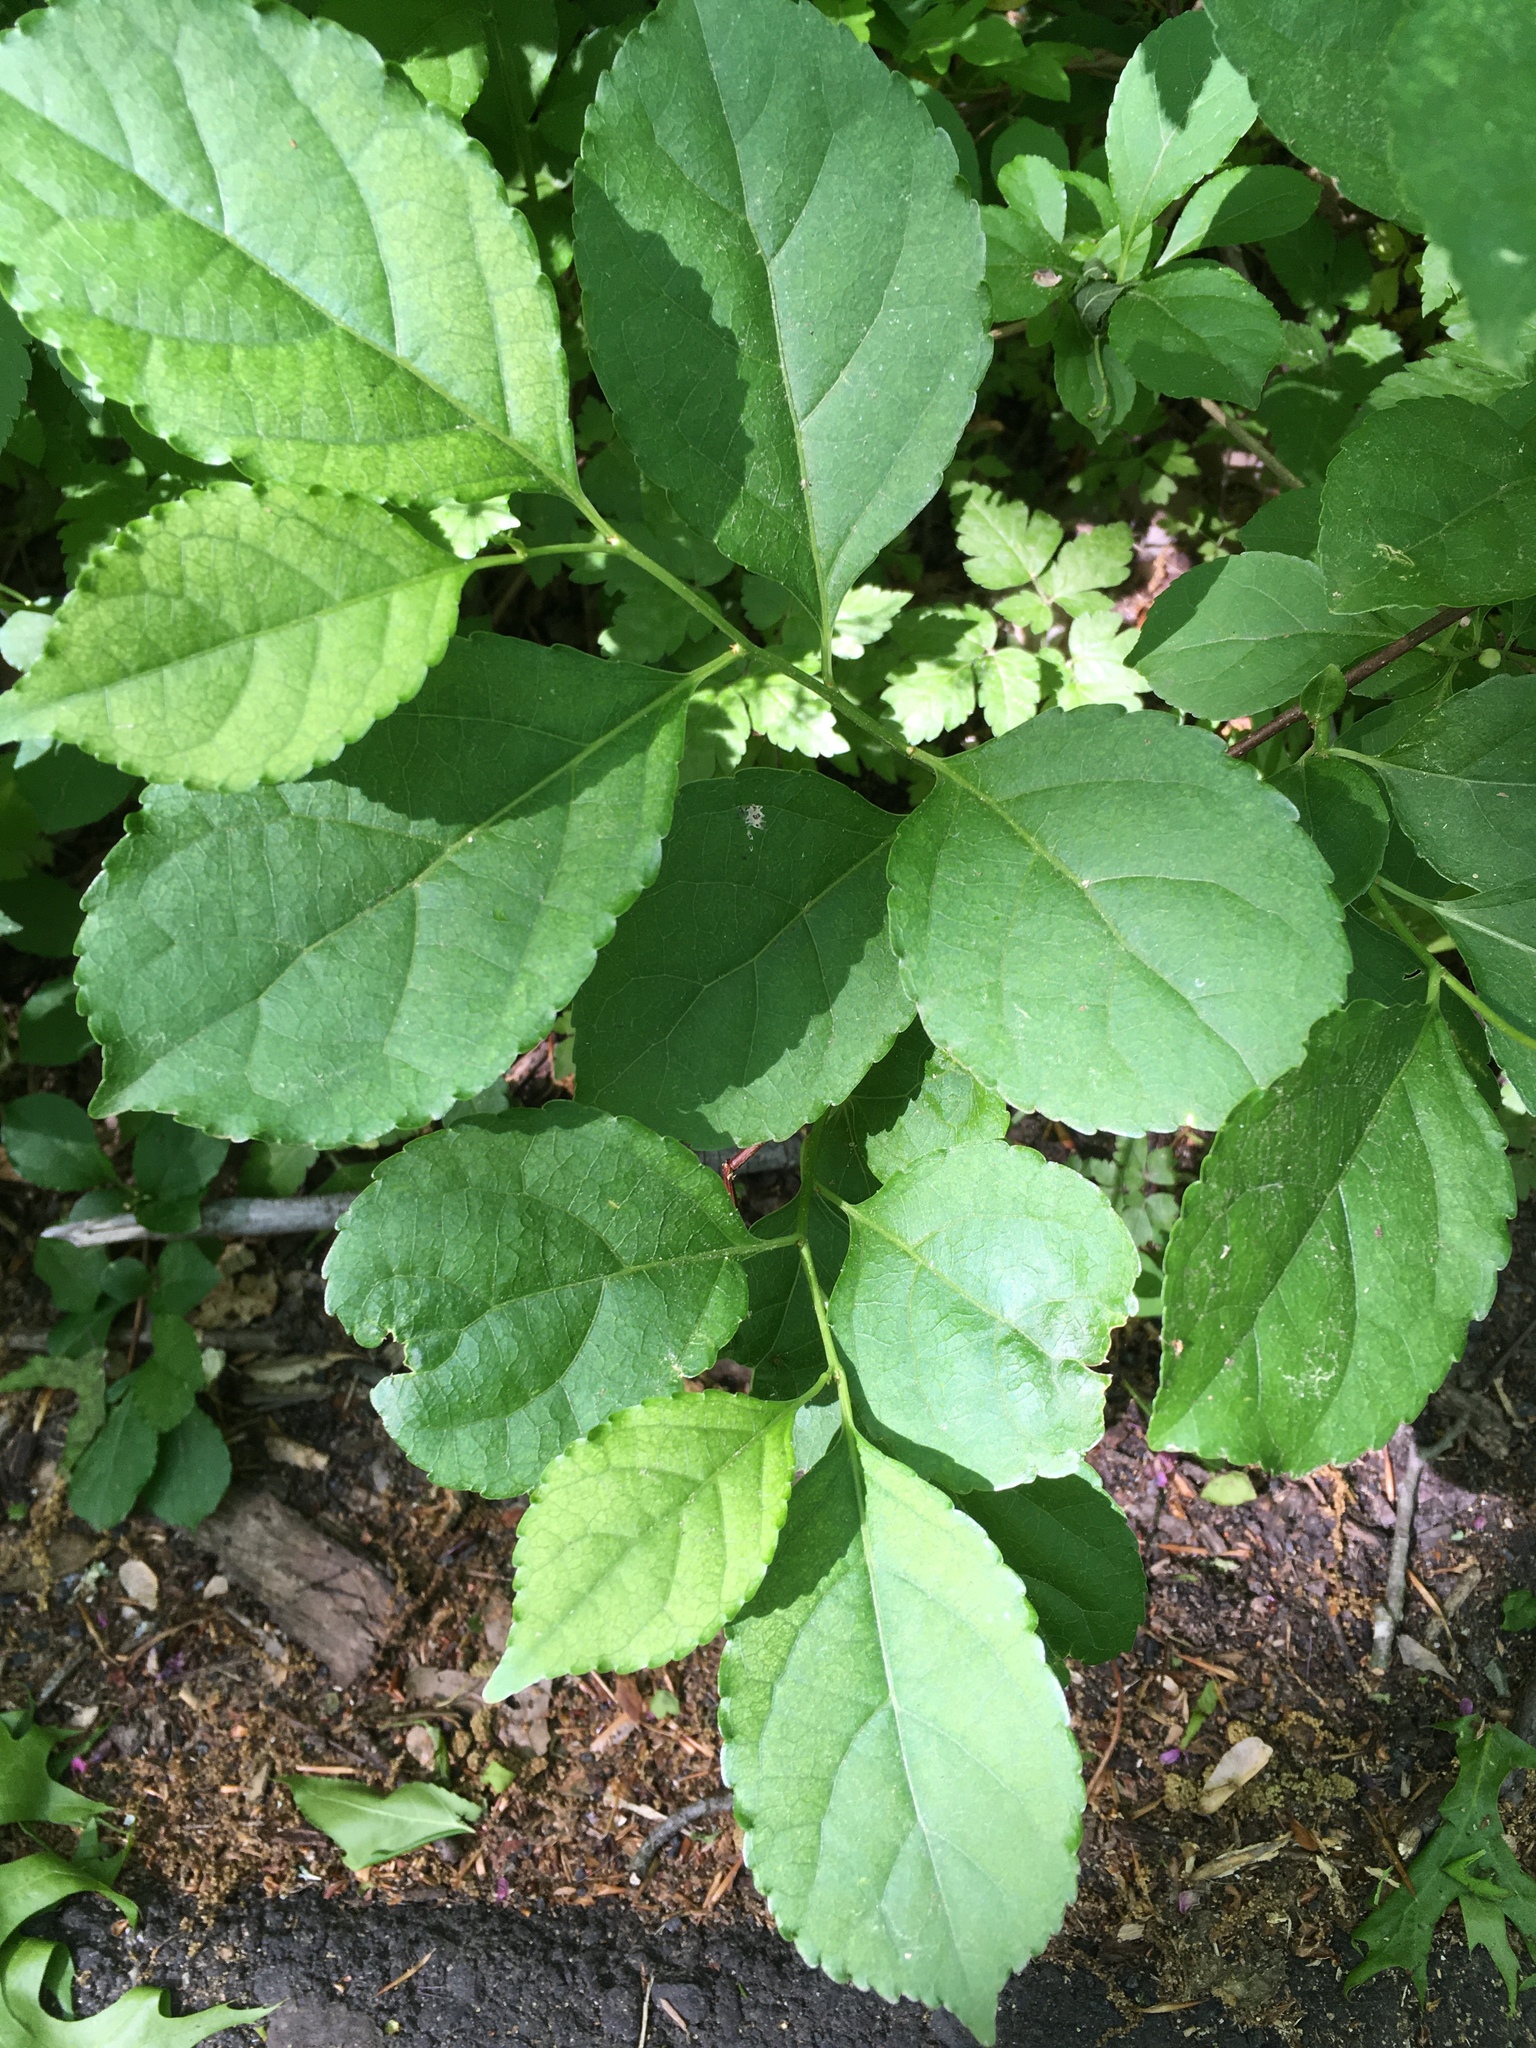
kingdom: Plantae
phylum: Tracheophyta
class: Magnoliopsida
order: Celastrales
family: Celastraceae
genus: Celastrus
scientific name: Celastrus orbiculatus
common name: Oriental bittersweet
